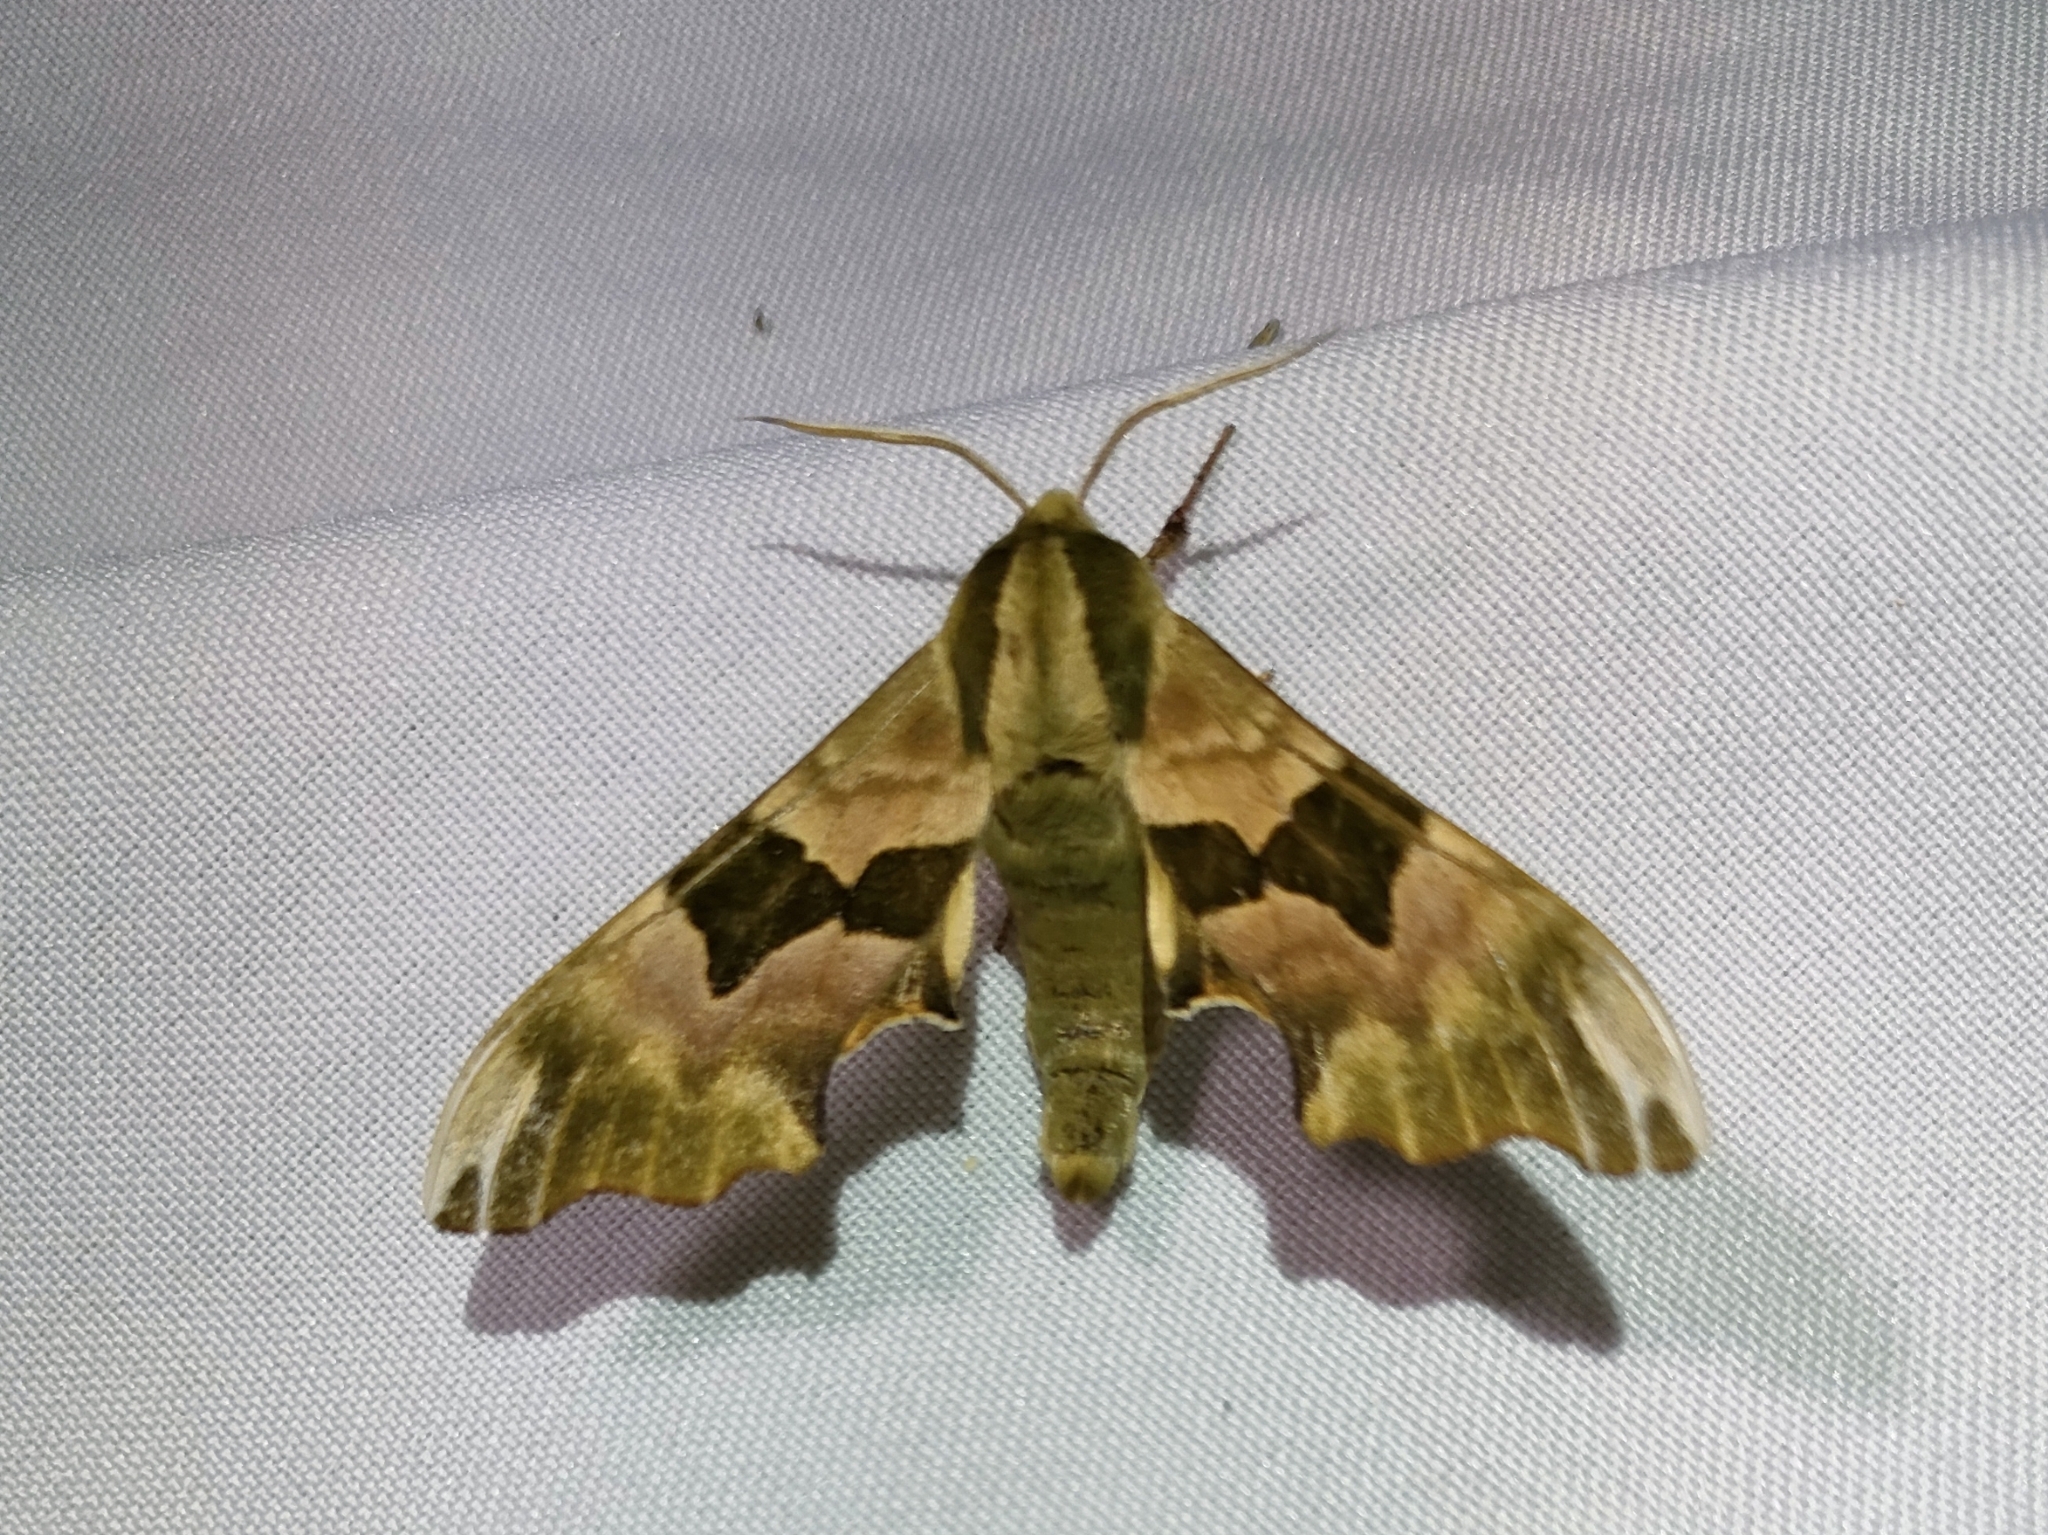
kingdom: Animalia
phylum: Arthropoda
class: Insecta
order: Lepidoptera
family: Sphingidae
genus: Mimas
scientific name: Mimas tiliae
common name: Lime hawk-moth
